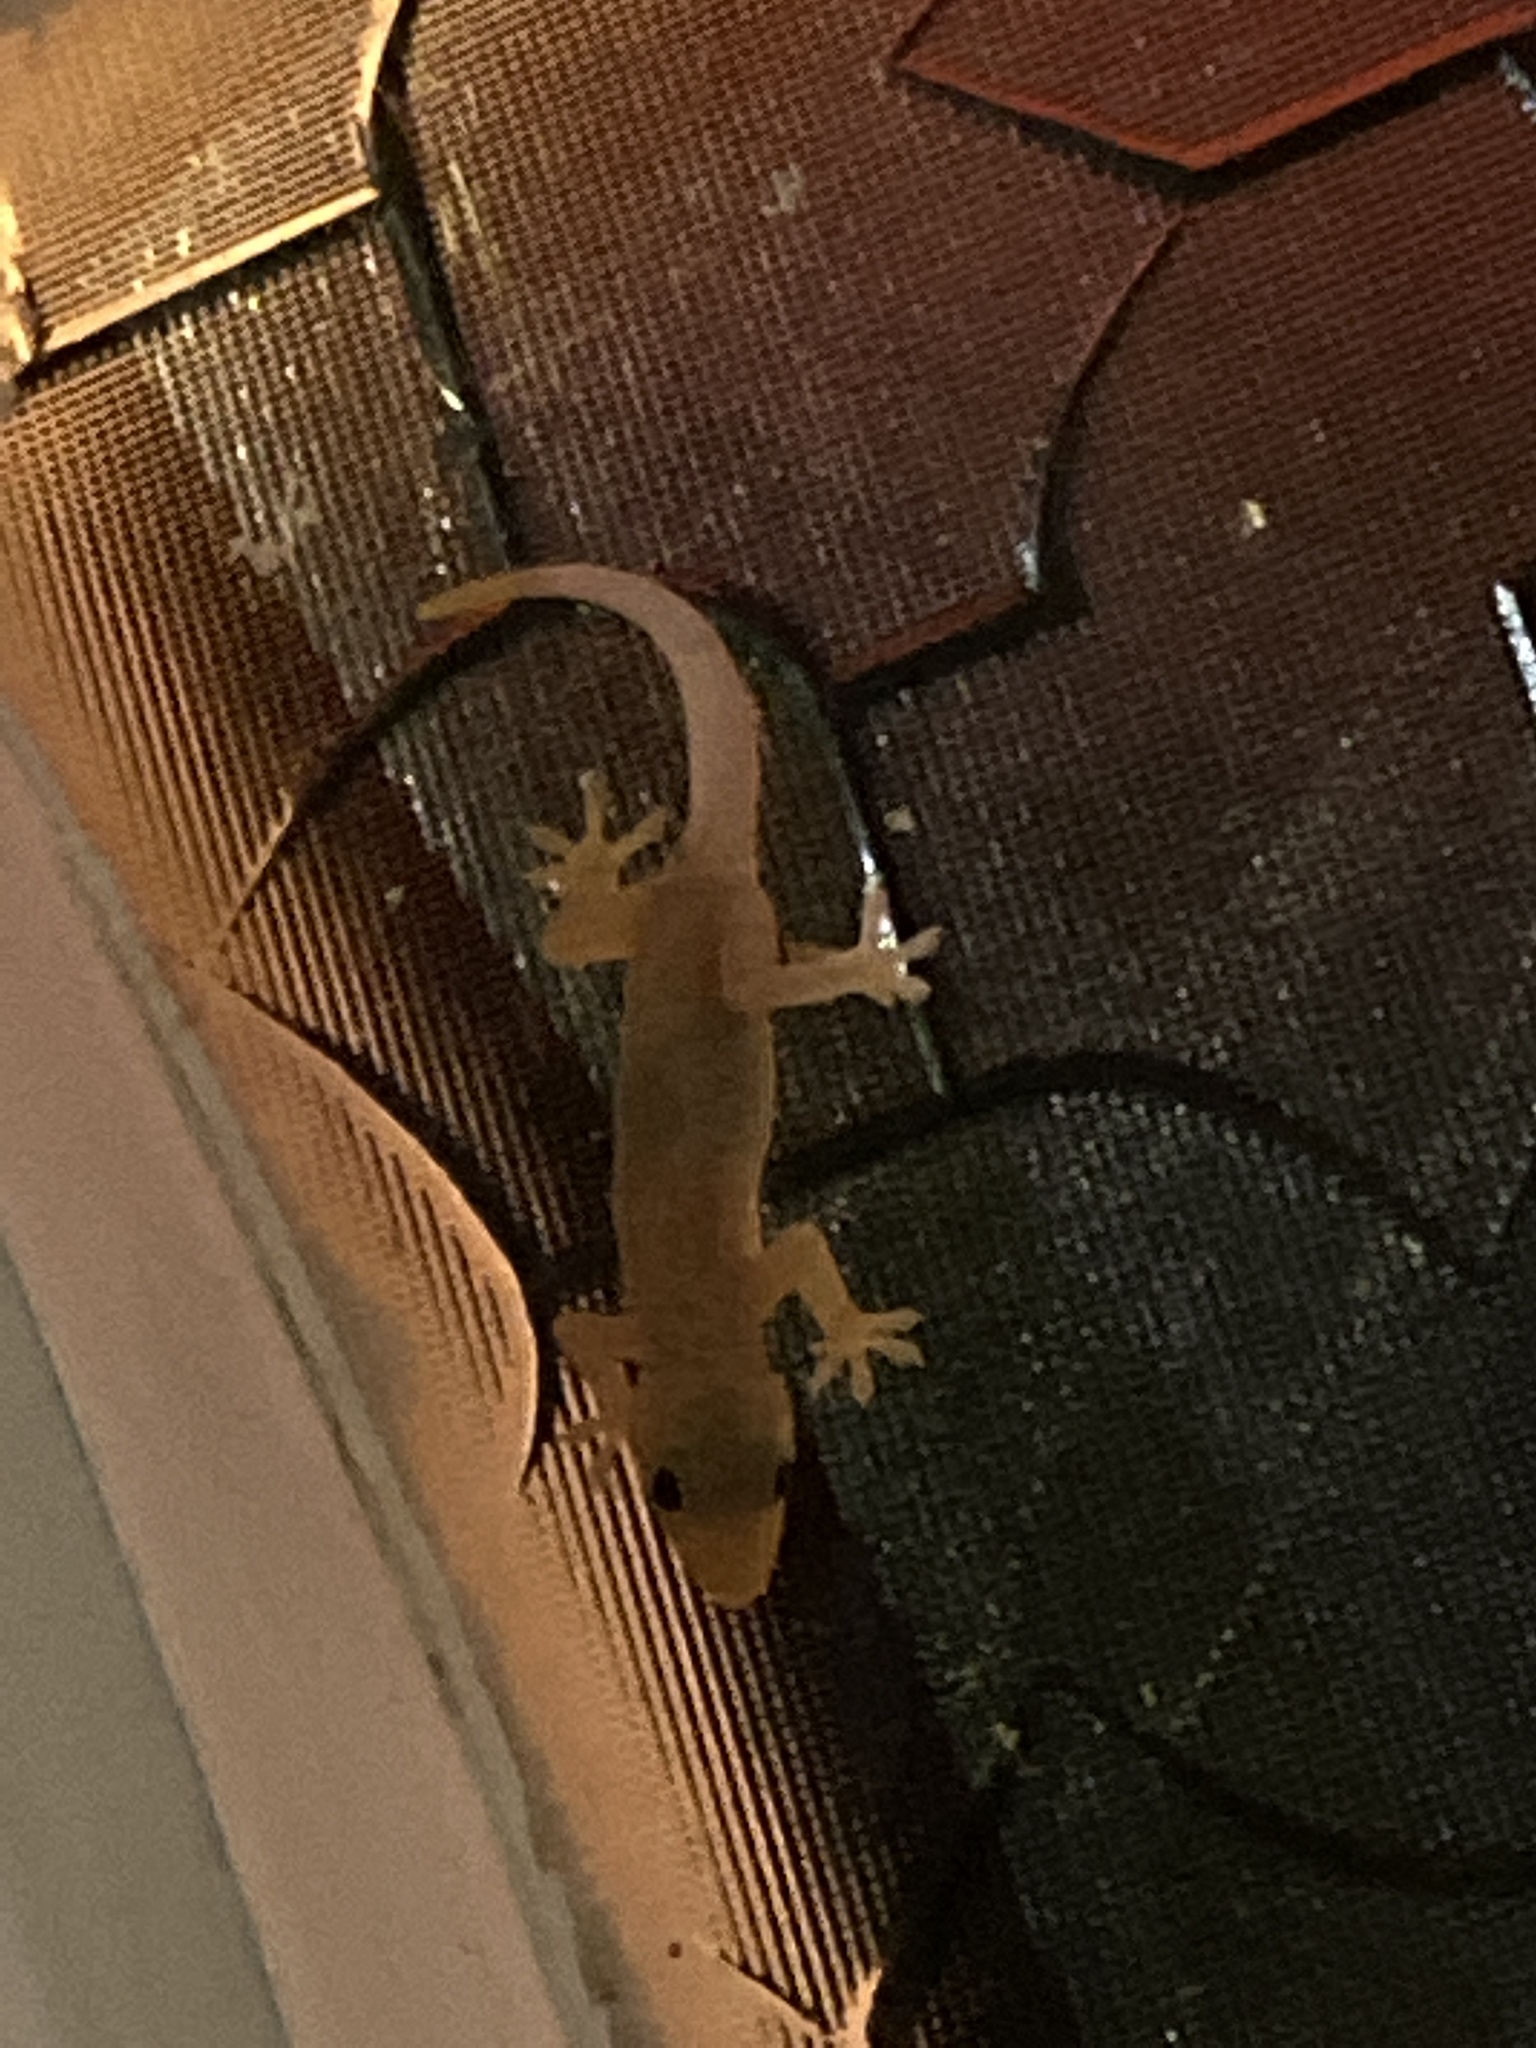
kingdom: Animalia
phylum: Chordata
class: Squamata
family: Gekkonidae
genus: Hemidactylus
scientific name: Hemidactylus mabouia
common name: House gecko
